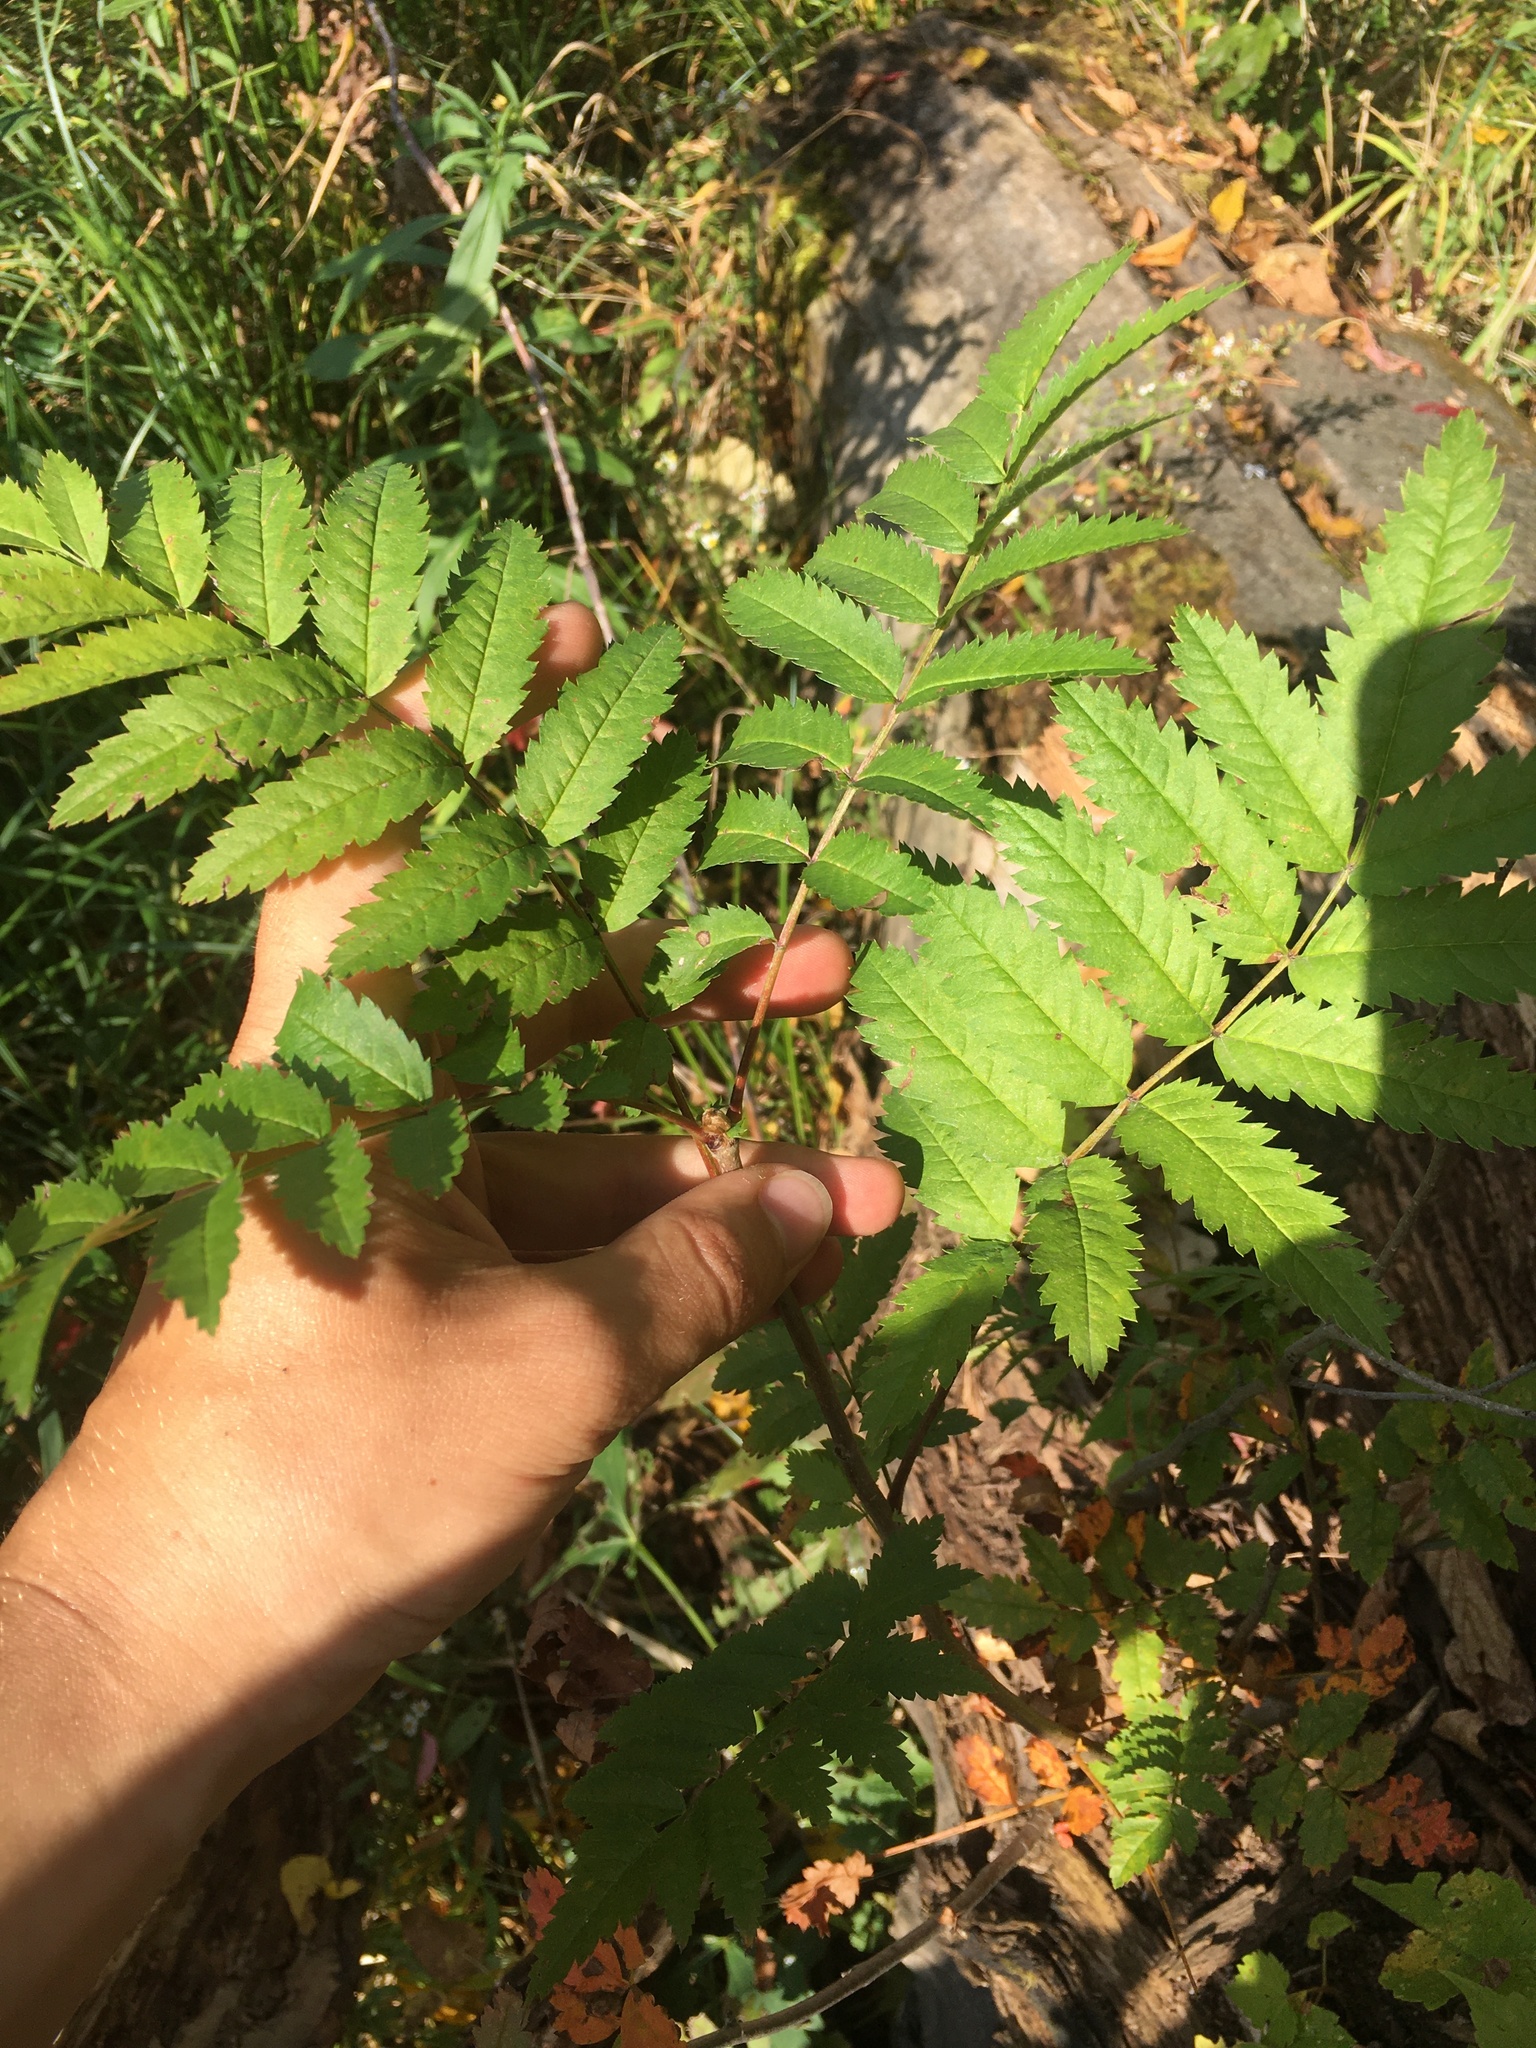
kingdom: Plantae
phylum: Tracheophyta
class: Magnoliopsida
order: Rosales
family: Rosaceae
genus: Sorbus
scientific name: Sorbus aucuparia
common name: Rowan
